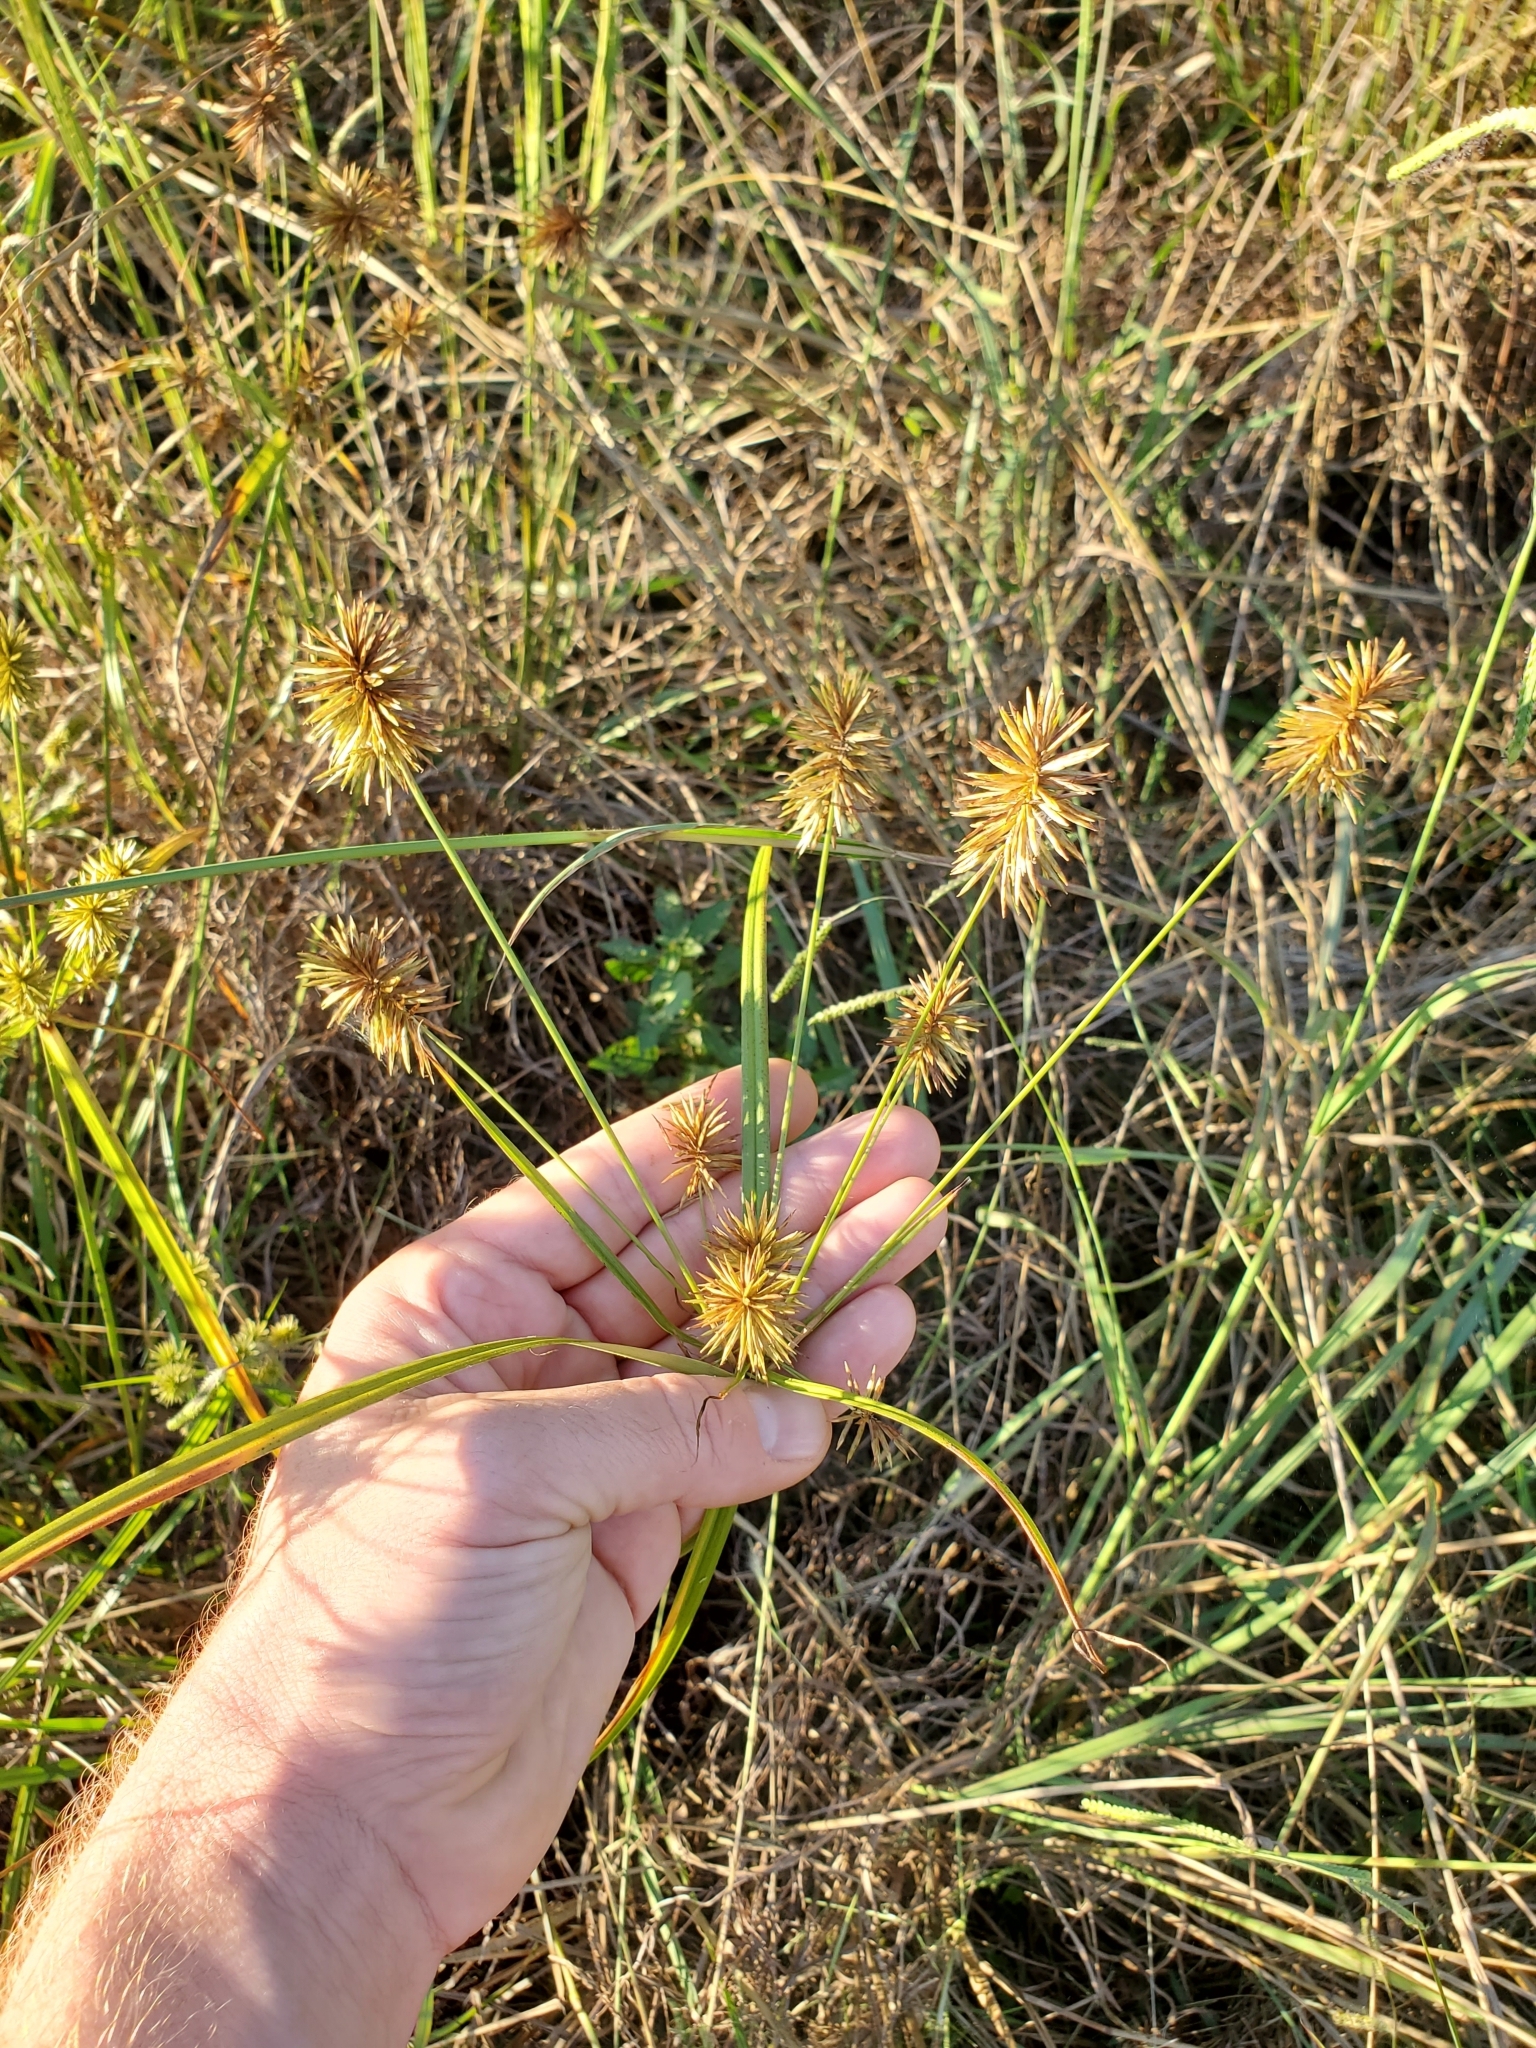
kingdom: Plantae
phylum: Tracheophyta
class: Liliopsida
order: Poales
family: Cyperaceae
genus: Cyperus
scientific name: Cyperus strigosus
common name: False nutsedge
